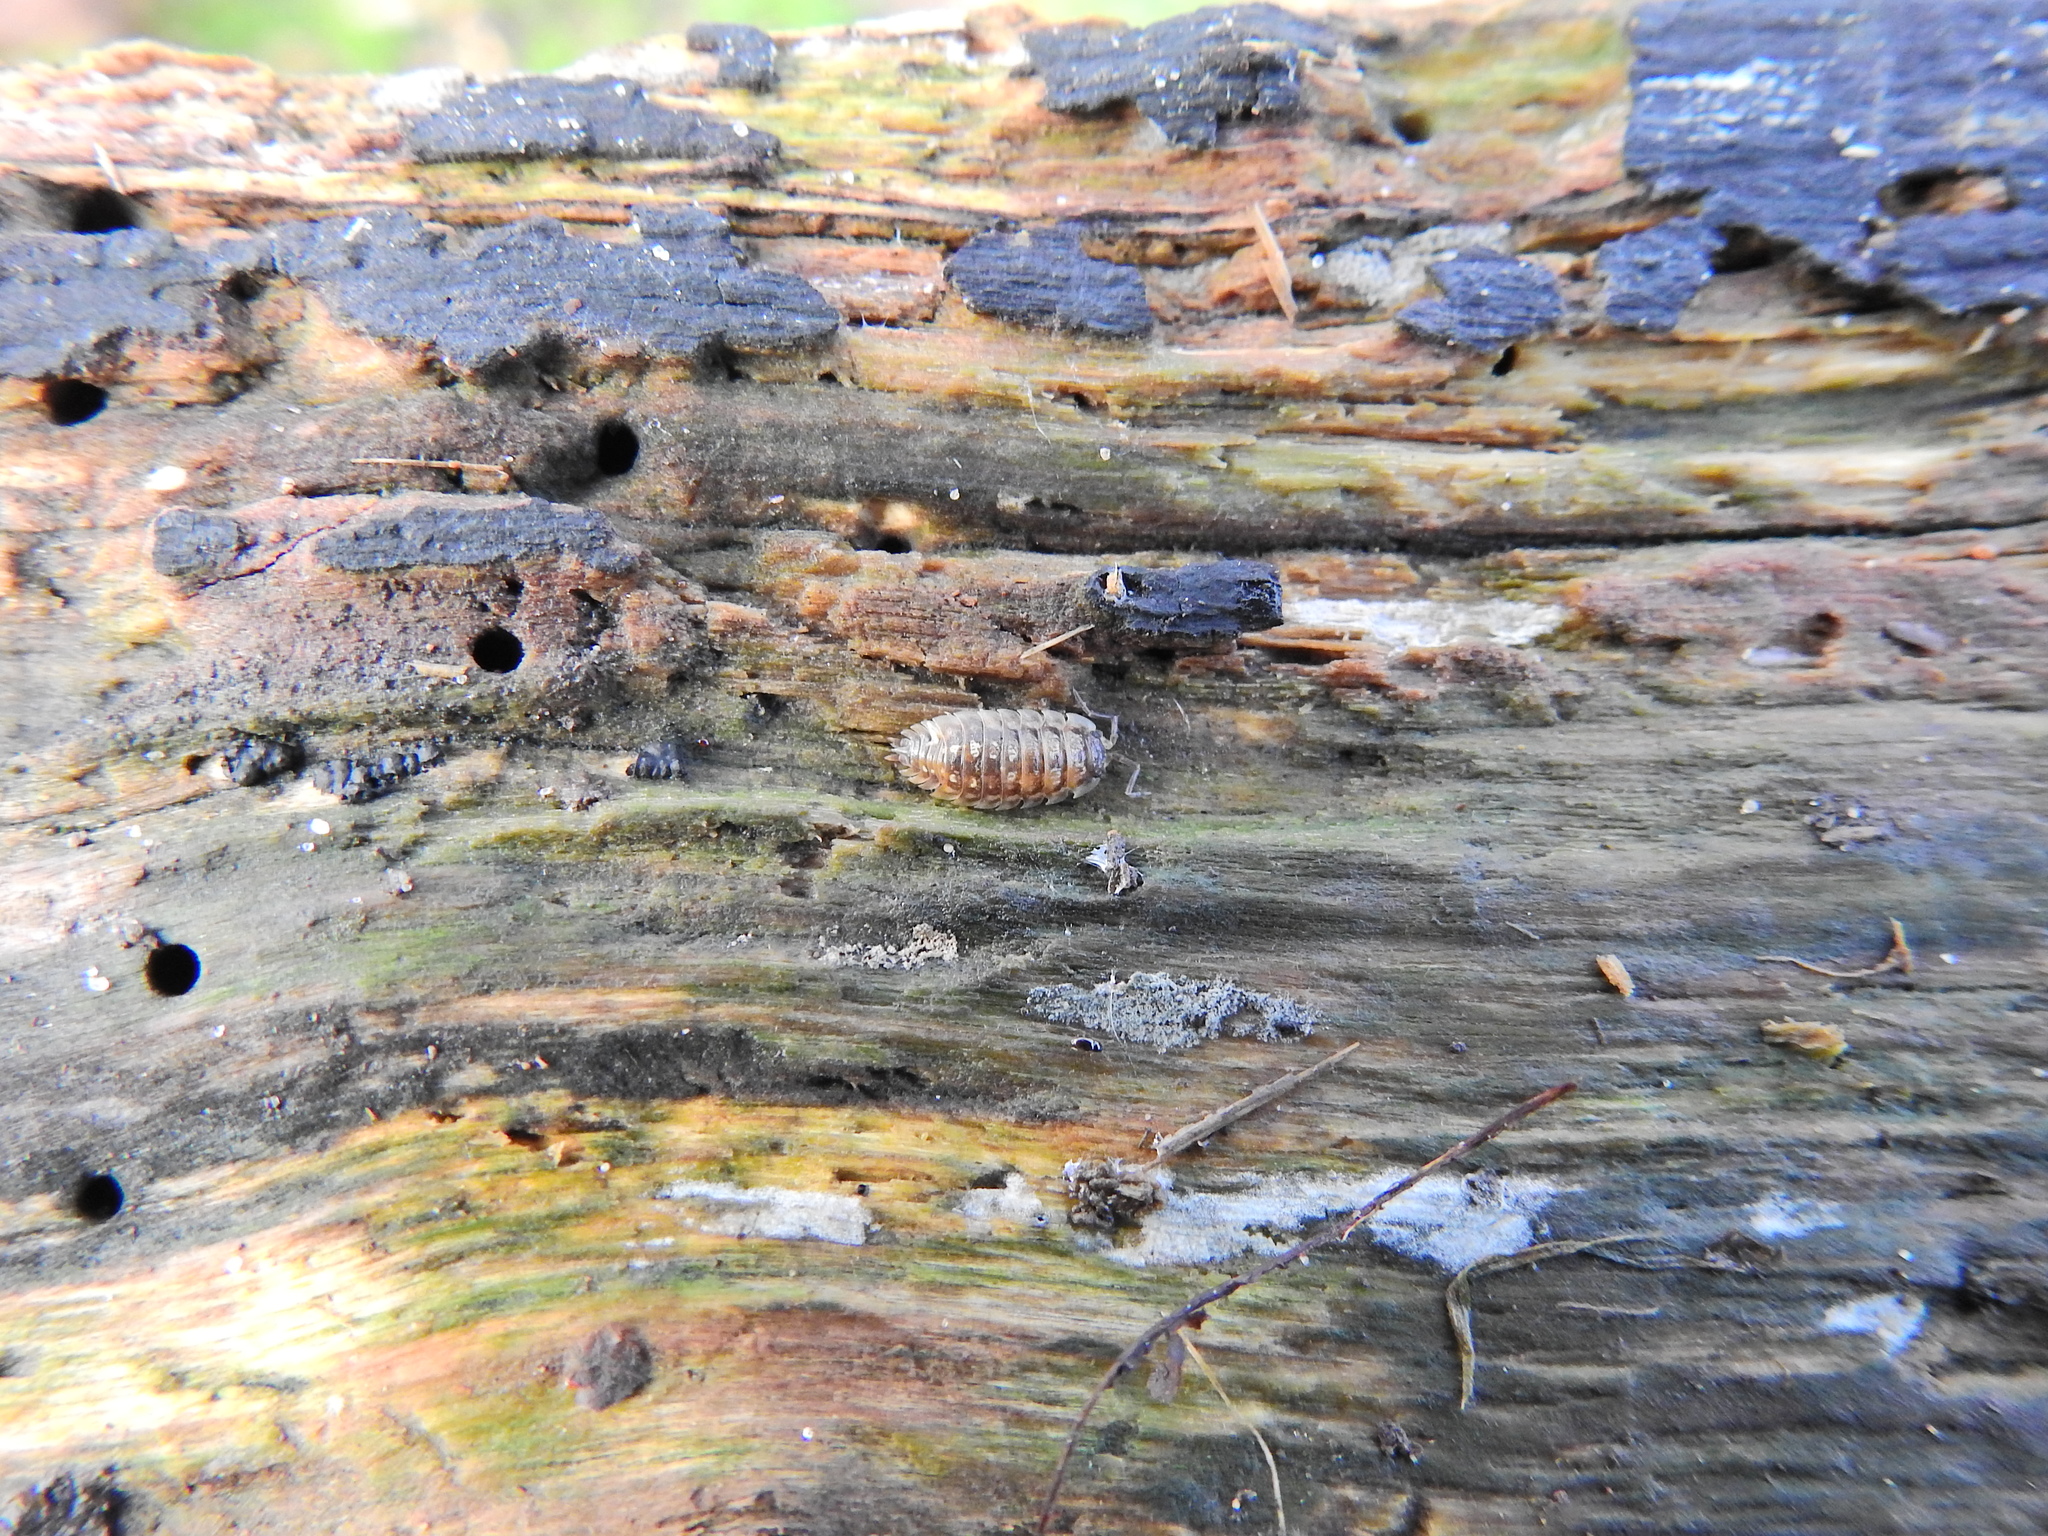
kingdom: Animalia
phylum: Arthropoda
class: Malacostraca
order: Isopoda
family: Oniscidae
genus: Oniscus
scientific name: Oniscus asellus
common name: Common shiny woodlouse
